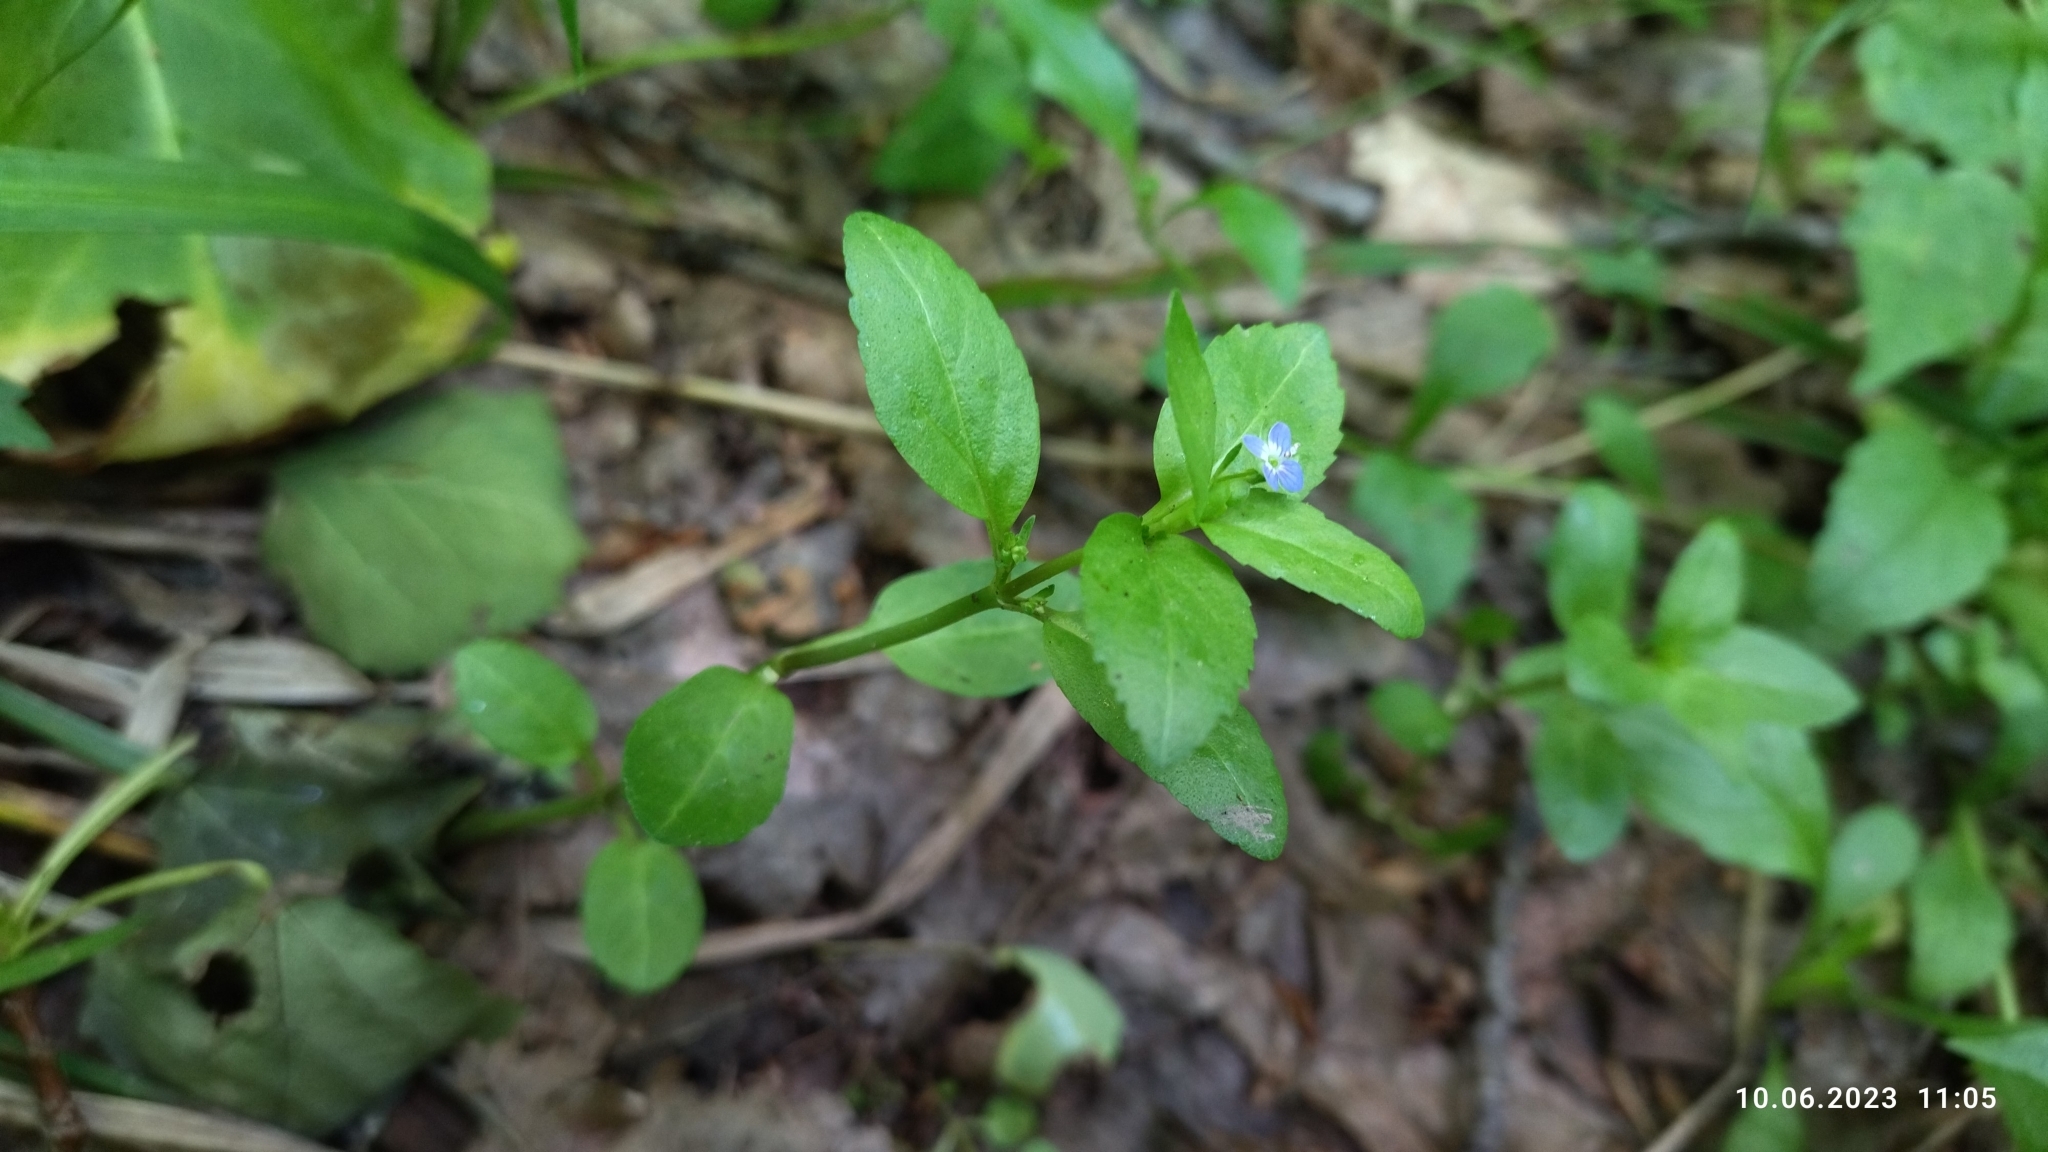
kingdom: Plantae
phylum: Tracheophyta
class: Magnoliopsida
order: Lamiales
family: Plantaginaceae
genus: Veronica
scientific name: Veronica beccabunga
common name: Brooklime
